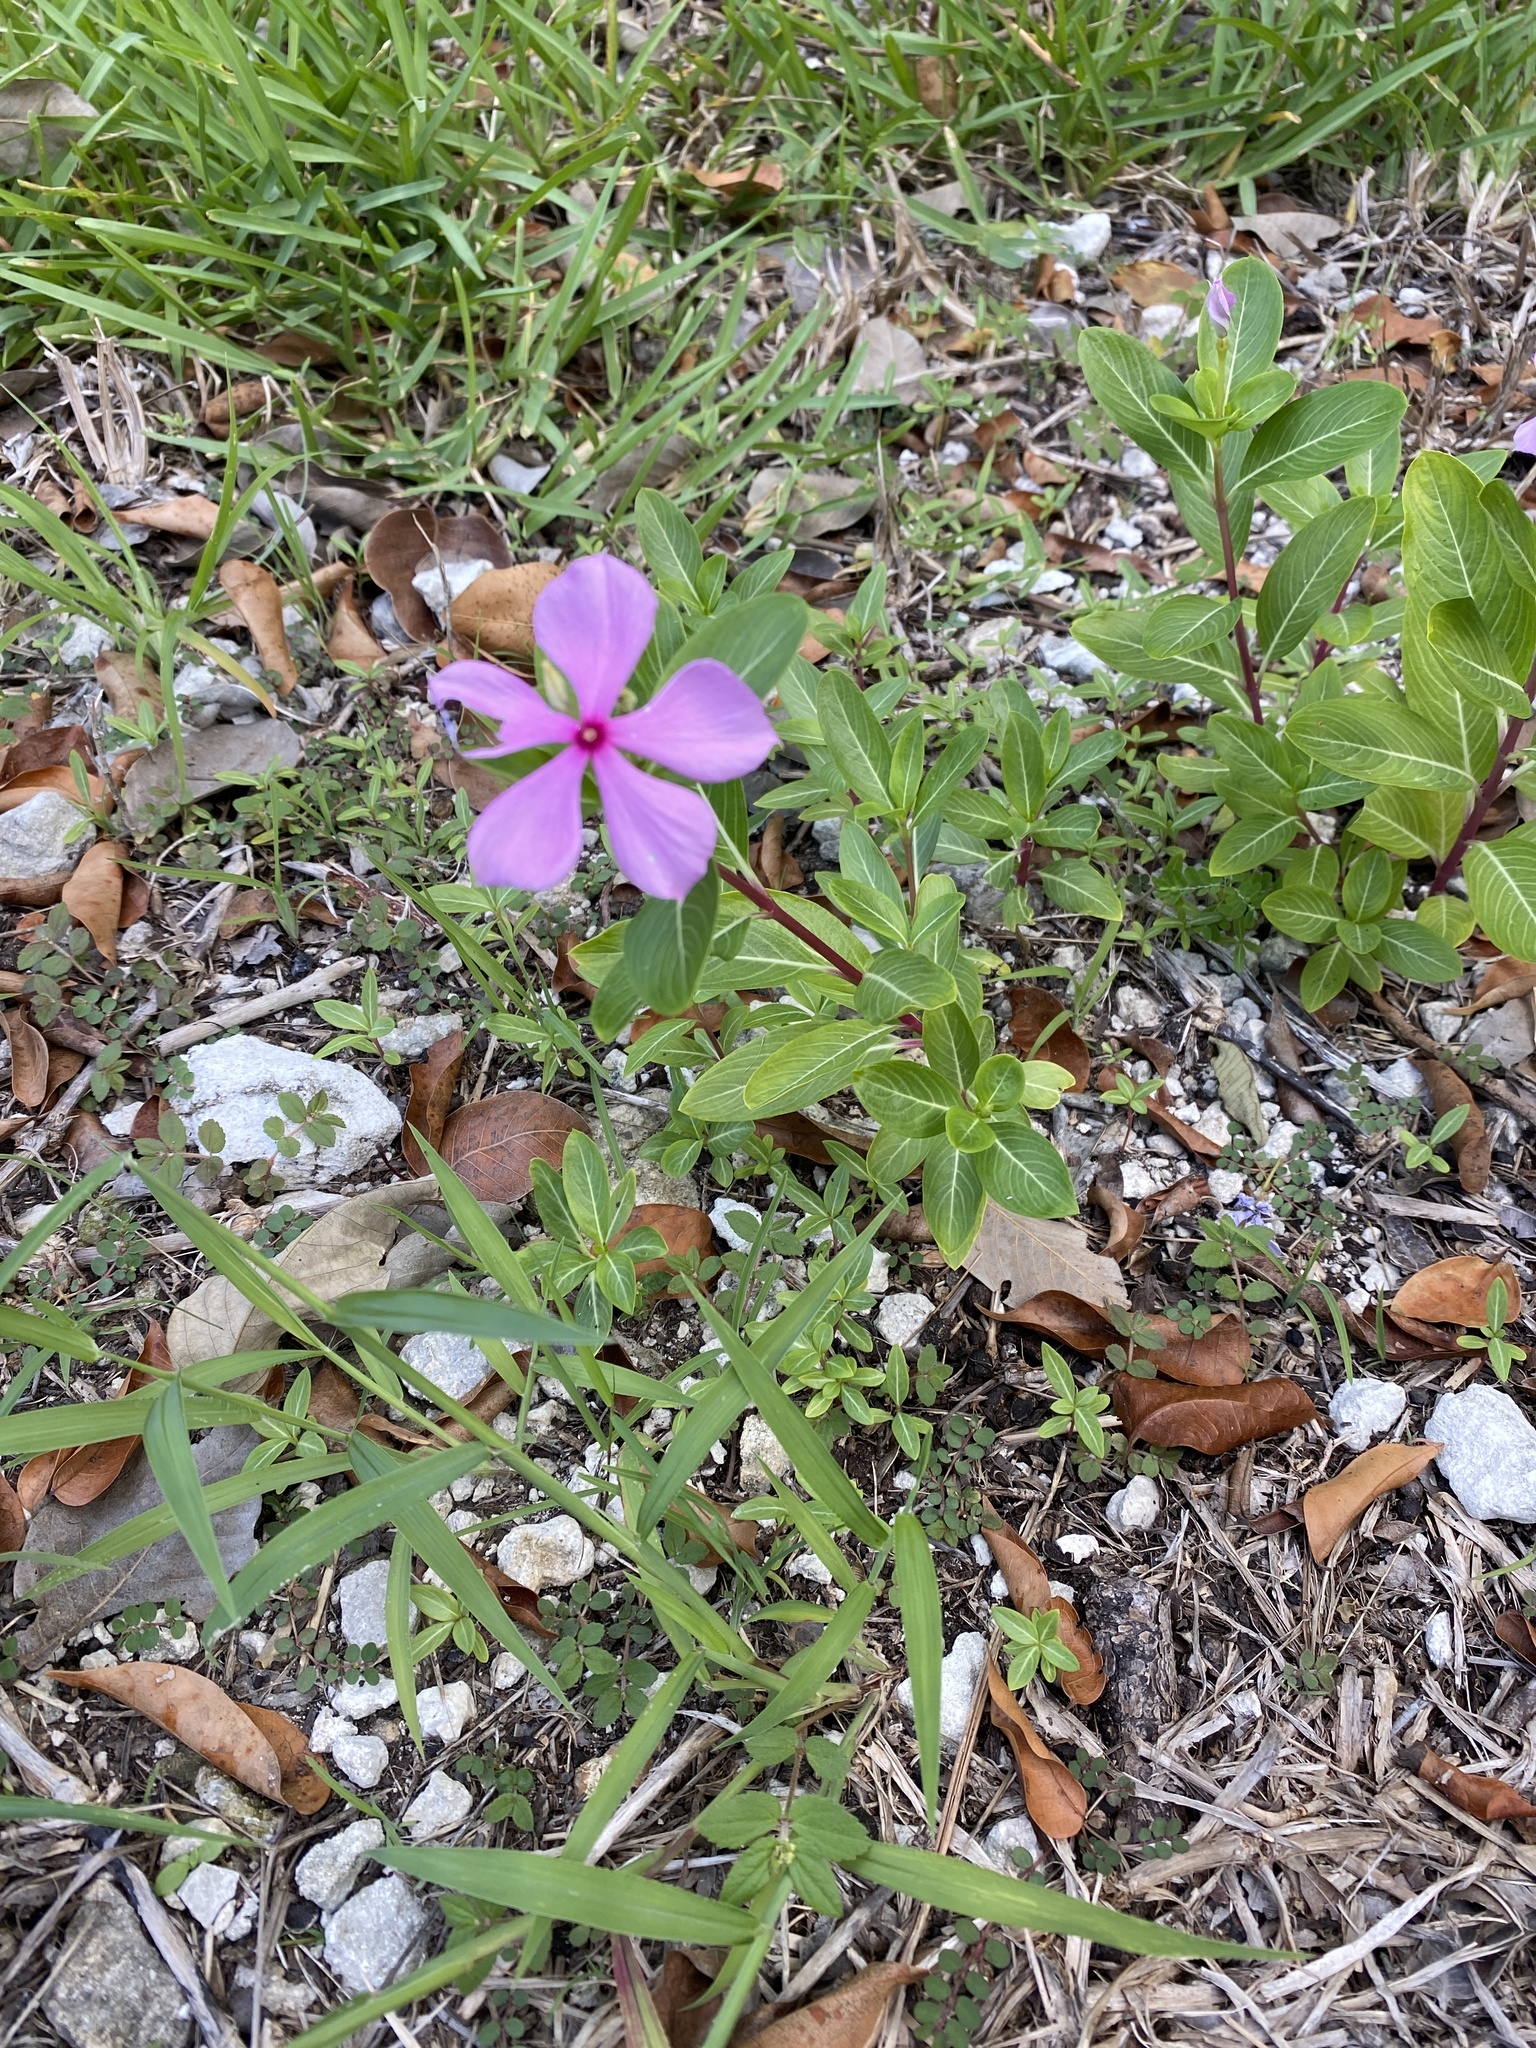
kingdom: Plantae
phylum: Tracheophyta
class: Magnoliopsida
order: Gentianales
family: Apocynaceae
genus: Catharanthus
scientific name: Catharanthus roseus
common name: Madagascar periwinkle
